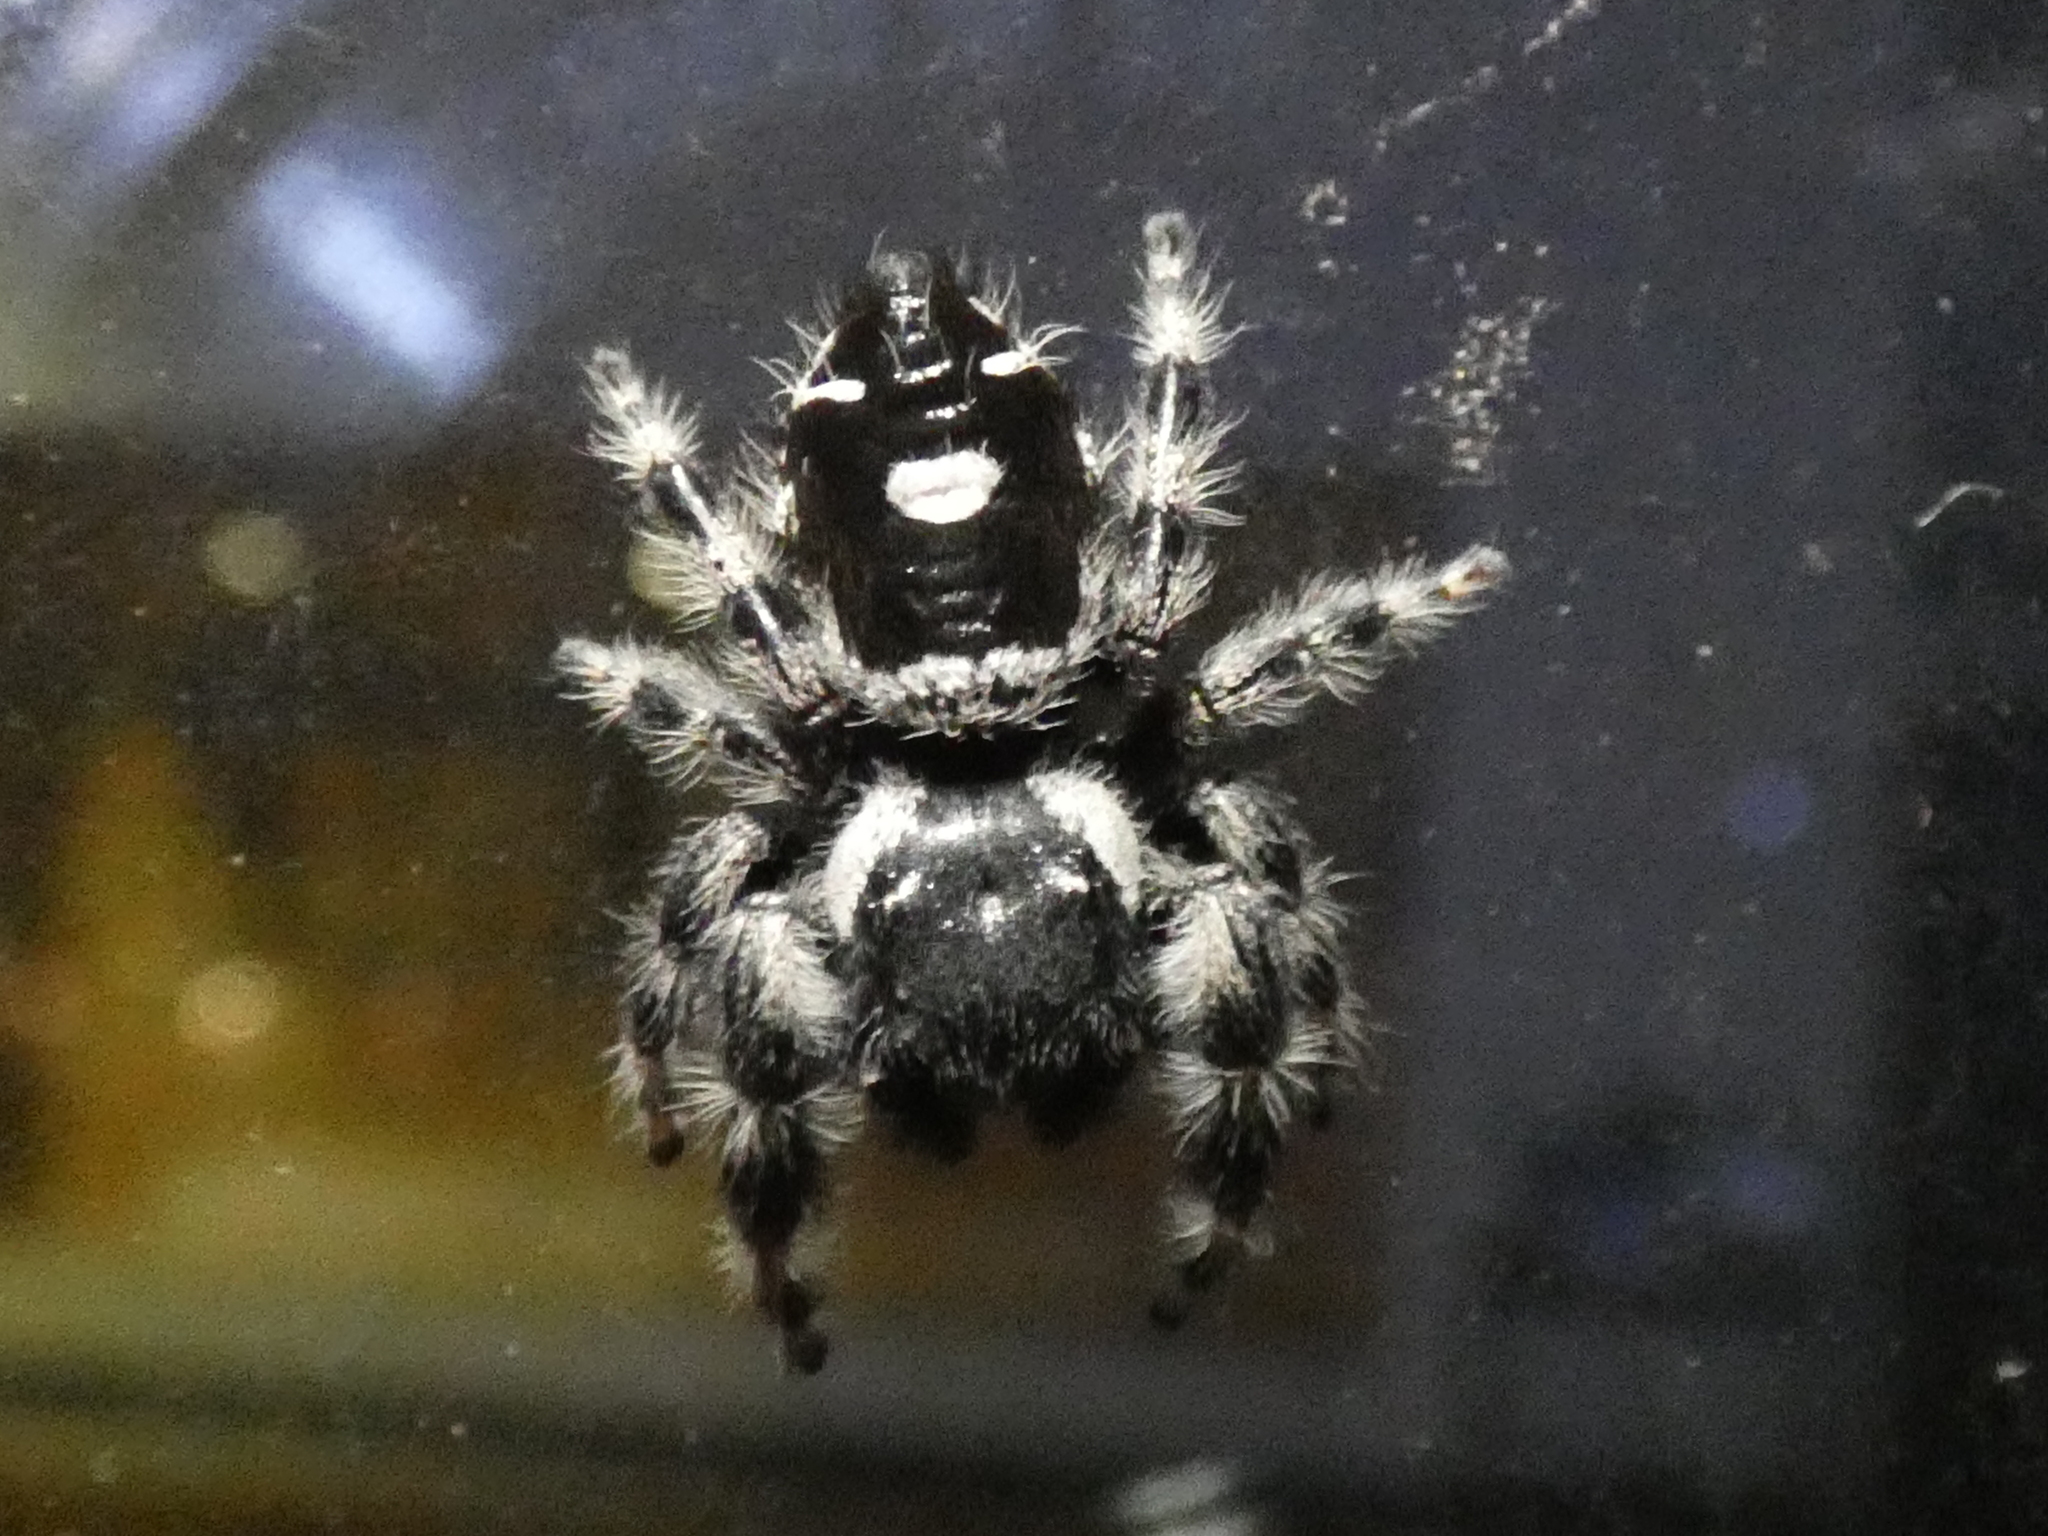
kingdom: Animalia
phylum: Arthropoda
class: Arachnida
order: Araneae
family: Salticidae
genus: Phidippus
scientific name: Phidippus audax
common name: Bold jumper
